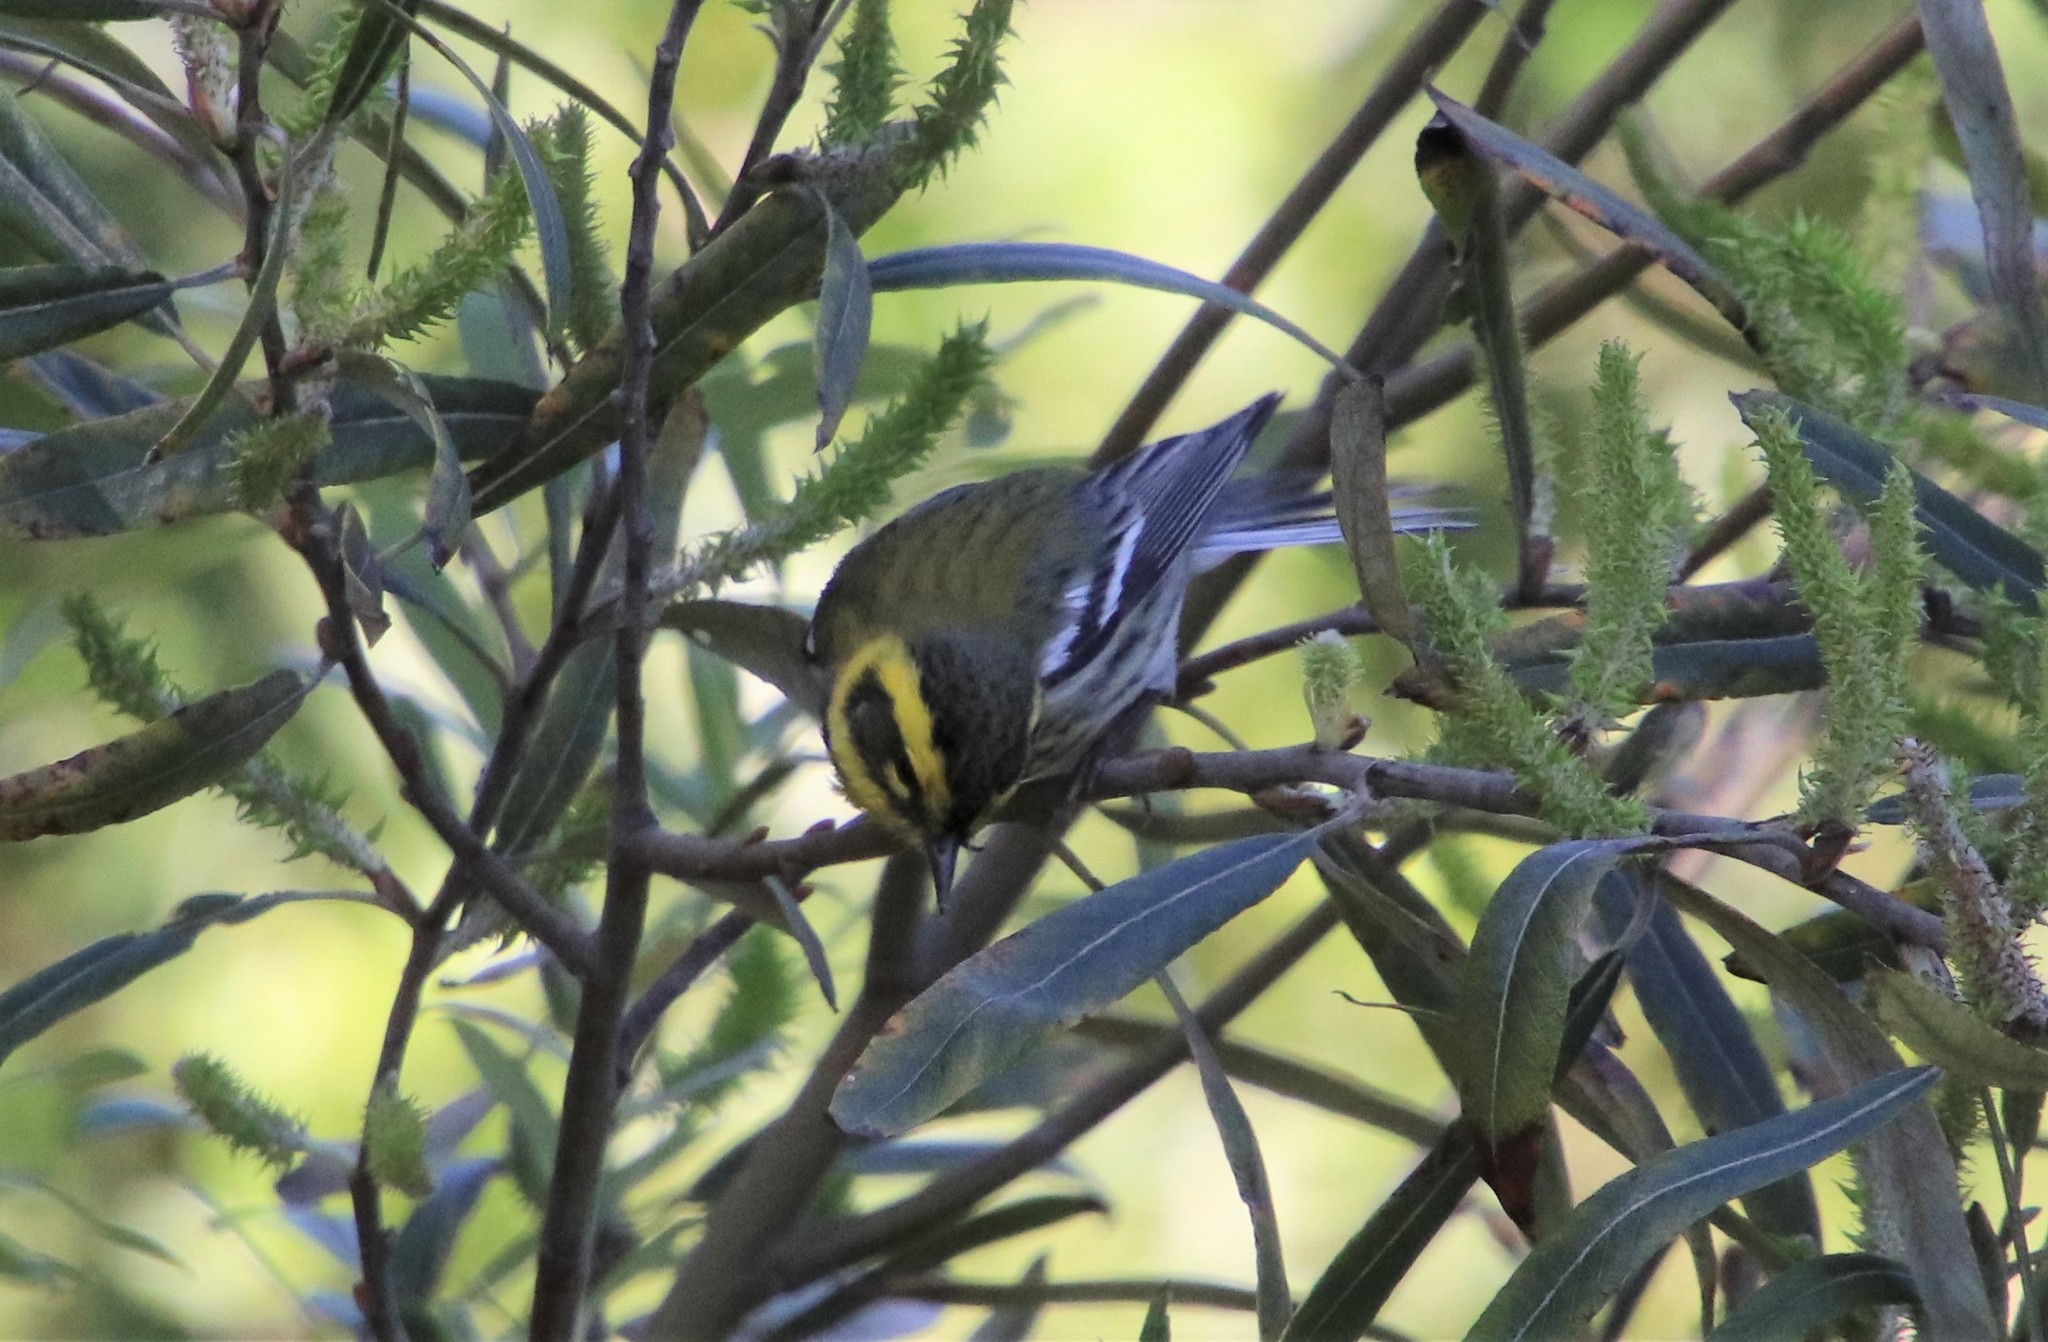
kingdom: Animalia
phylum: Chordata
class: Aves
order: Passeriformes
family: Parulidae
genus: Setophaga
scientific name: Setophaga townsendi
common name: Townsend's warbler
